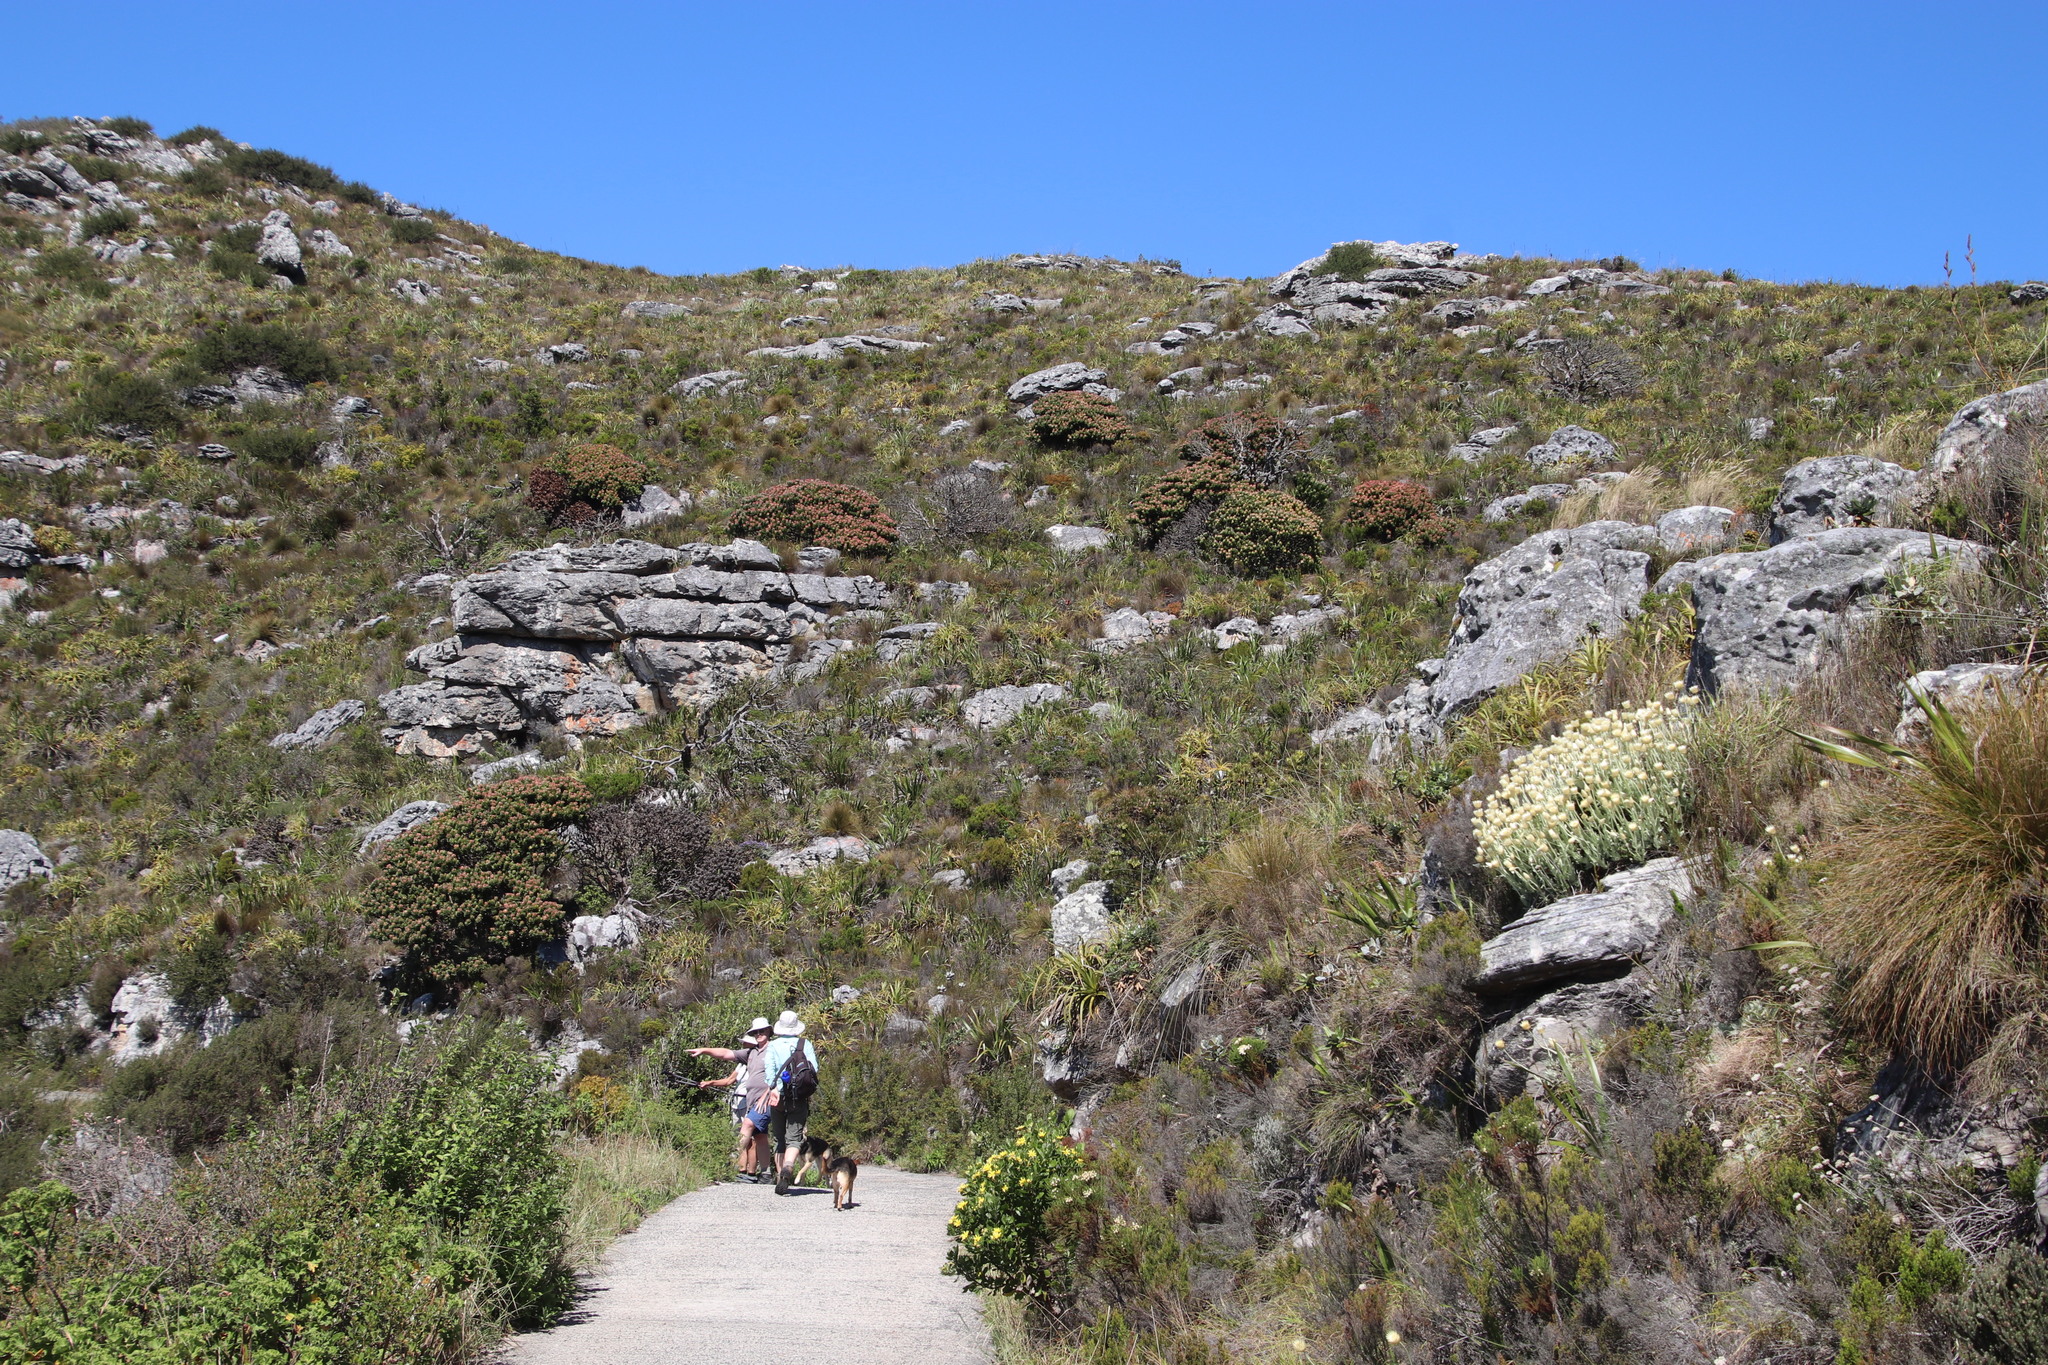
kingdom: Plantae
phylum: Tracheophyta
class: Magnoliopsida
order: Proteales
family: Proteaceae
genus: Mimetes
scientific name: Mimetes fimbriifolius
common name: Fringed bottlebrush
